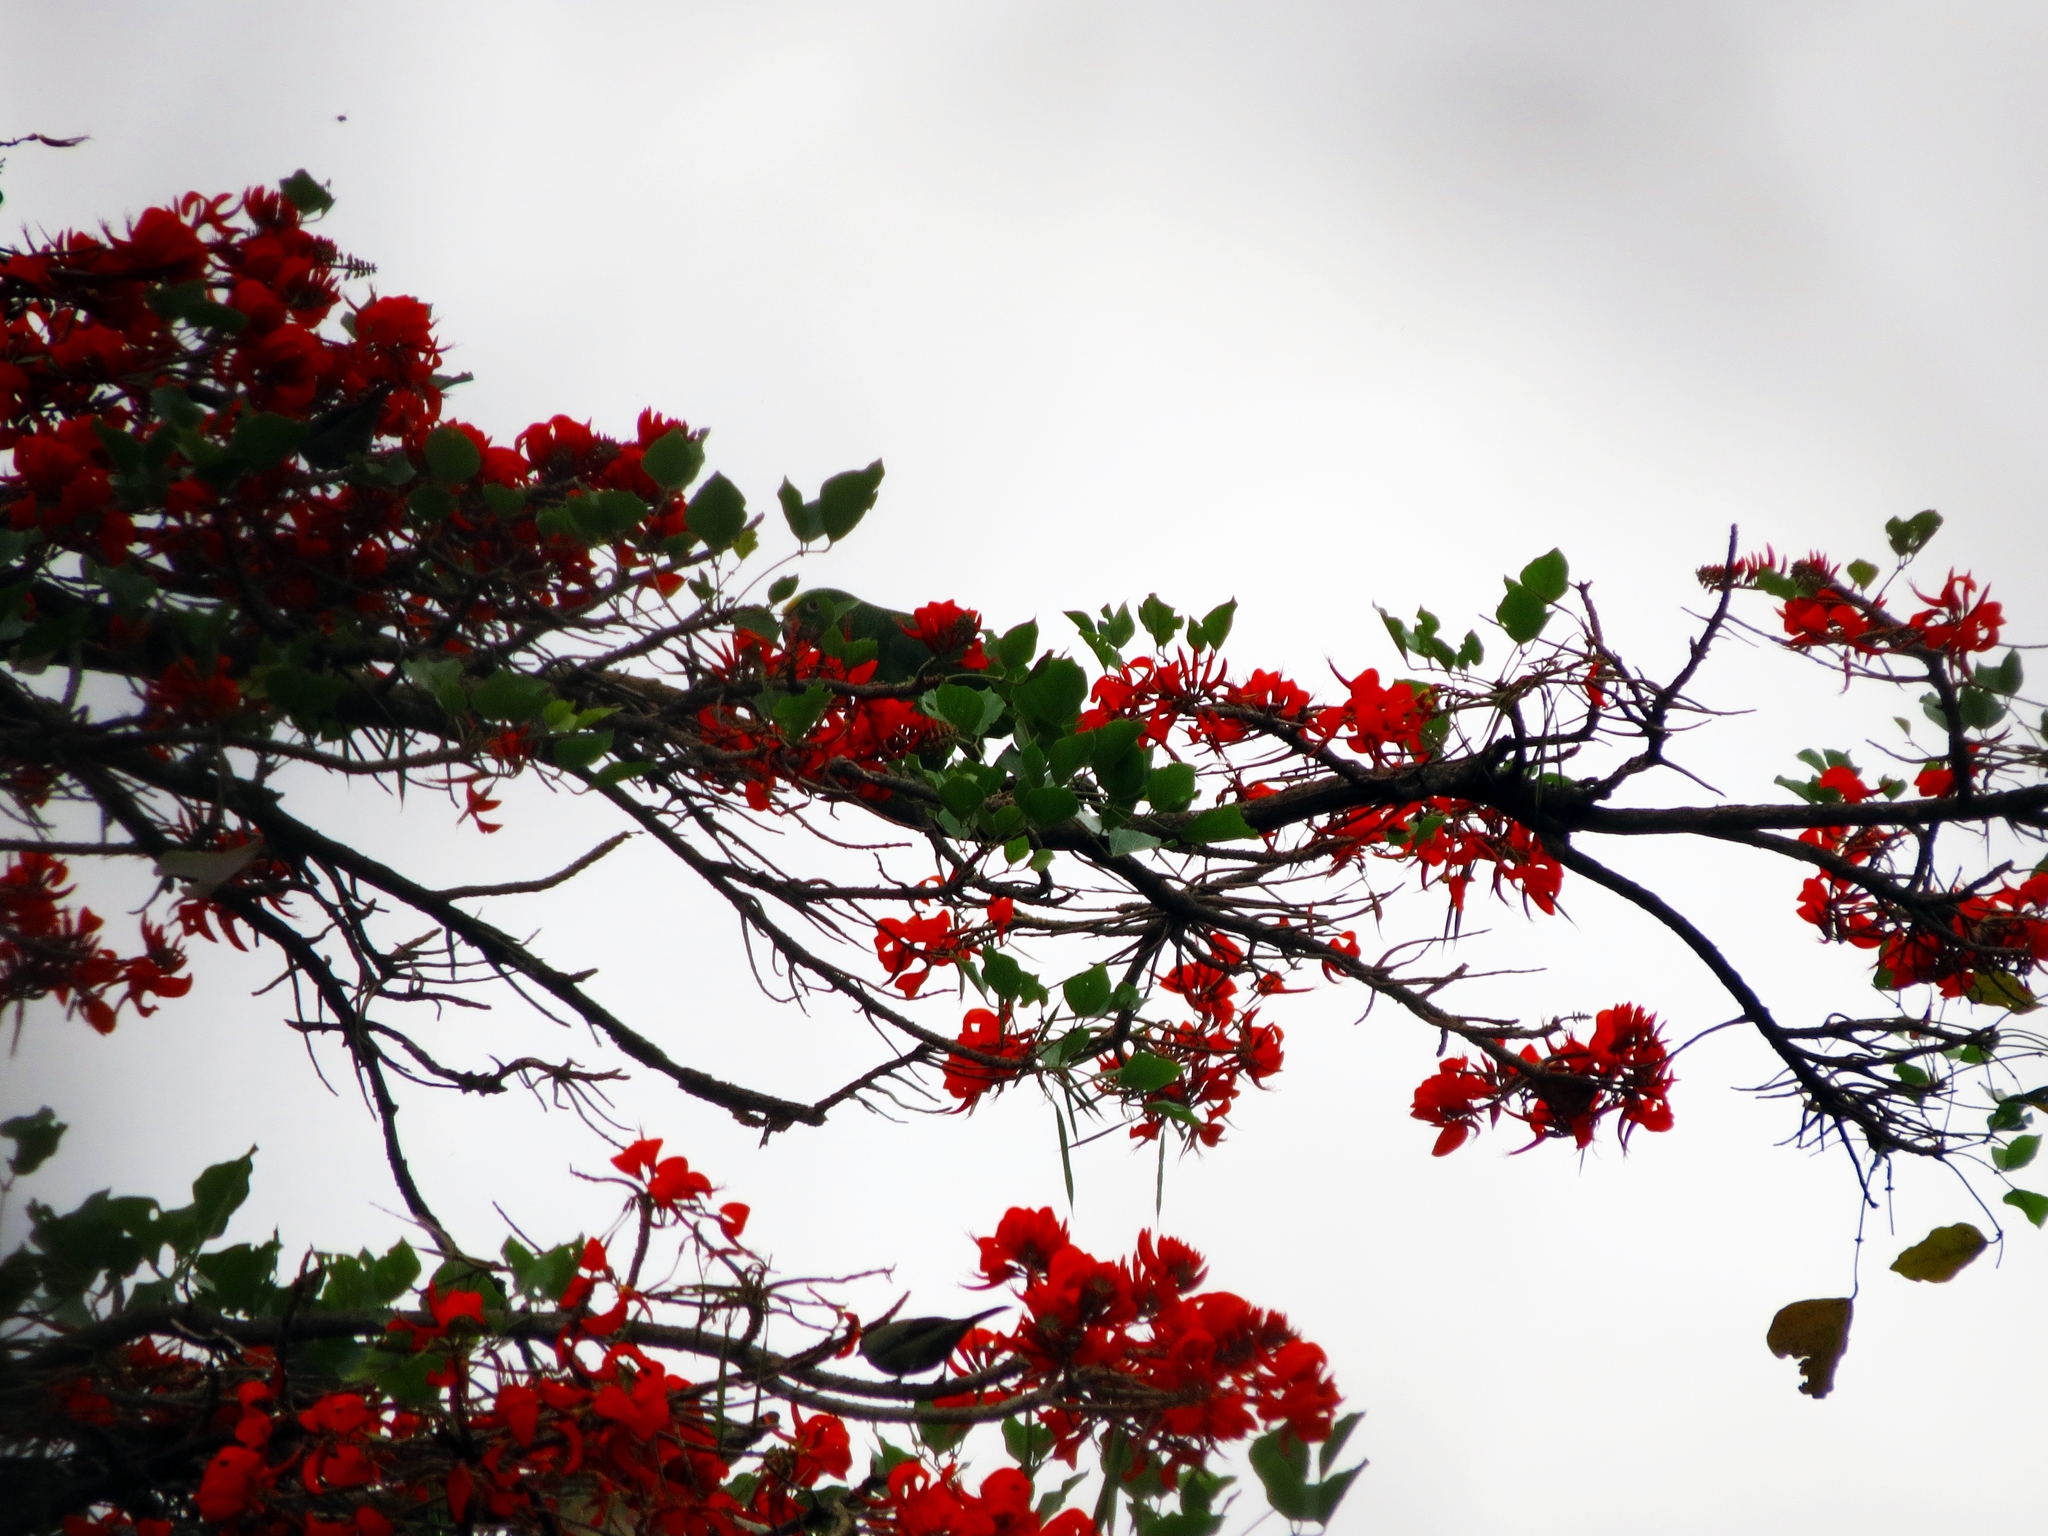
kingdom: Animalia
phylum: Chordata
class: Aves
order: Psittaciformes
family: Psittacidae
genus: Amazona
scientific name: Amazona ochrocephala
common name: Yellow-crowned amazon
